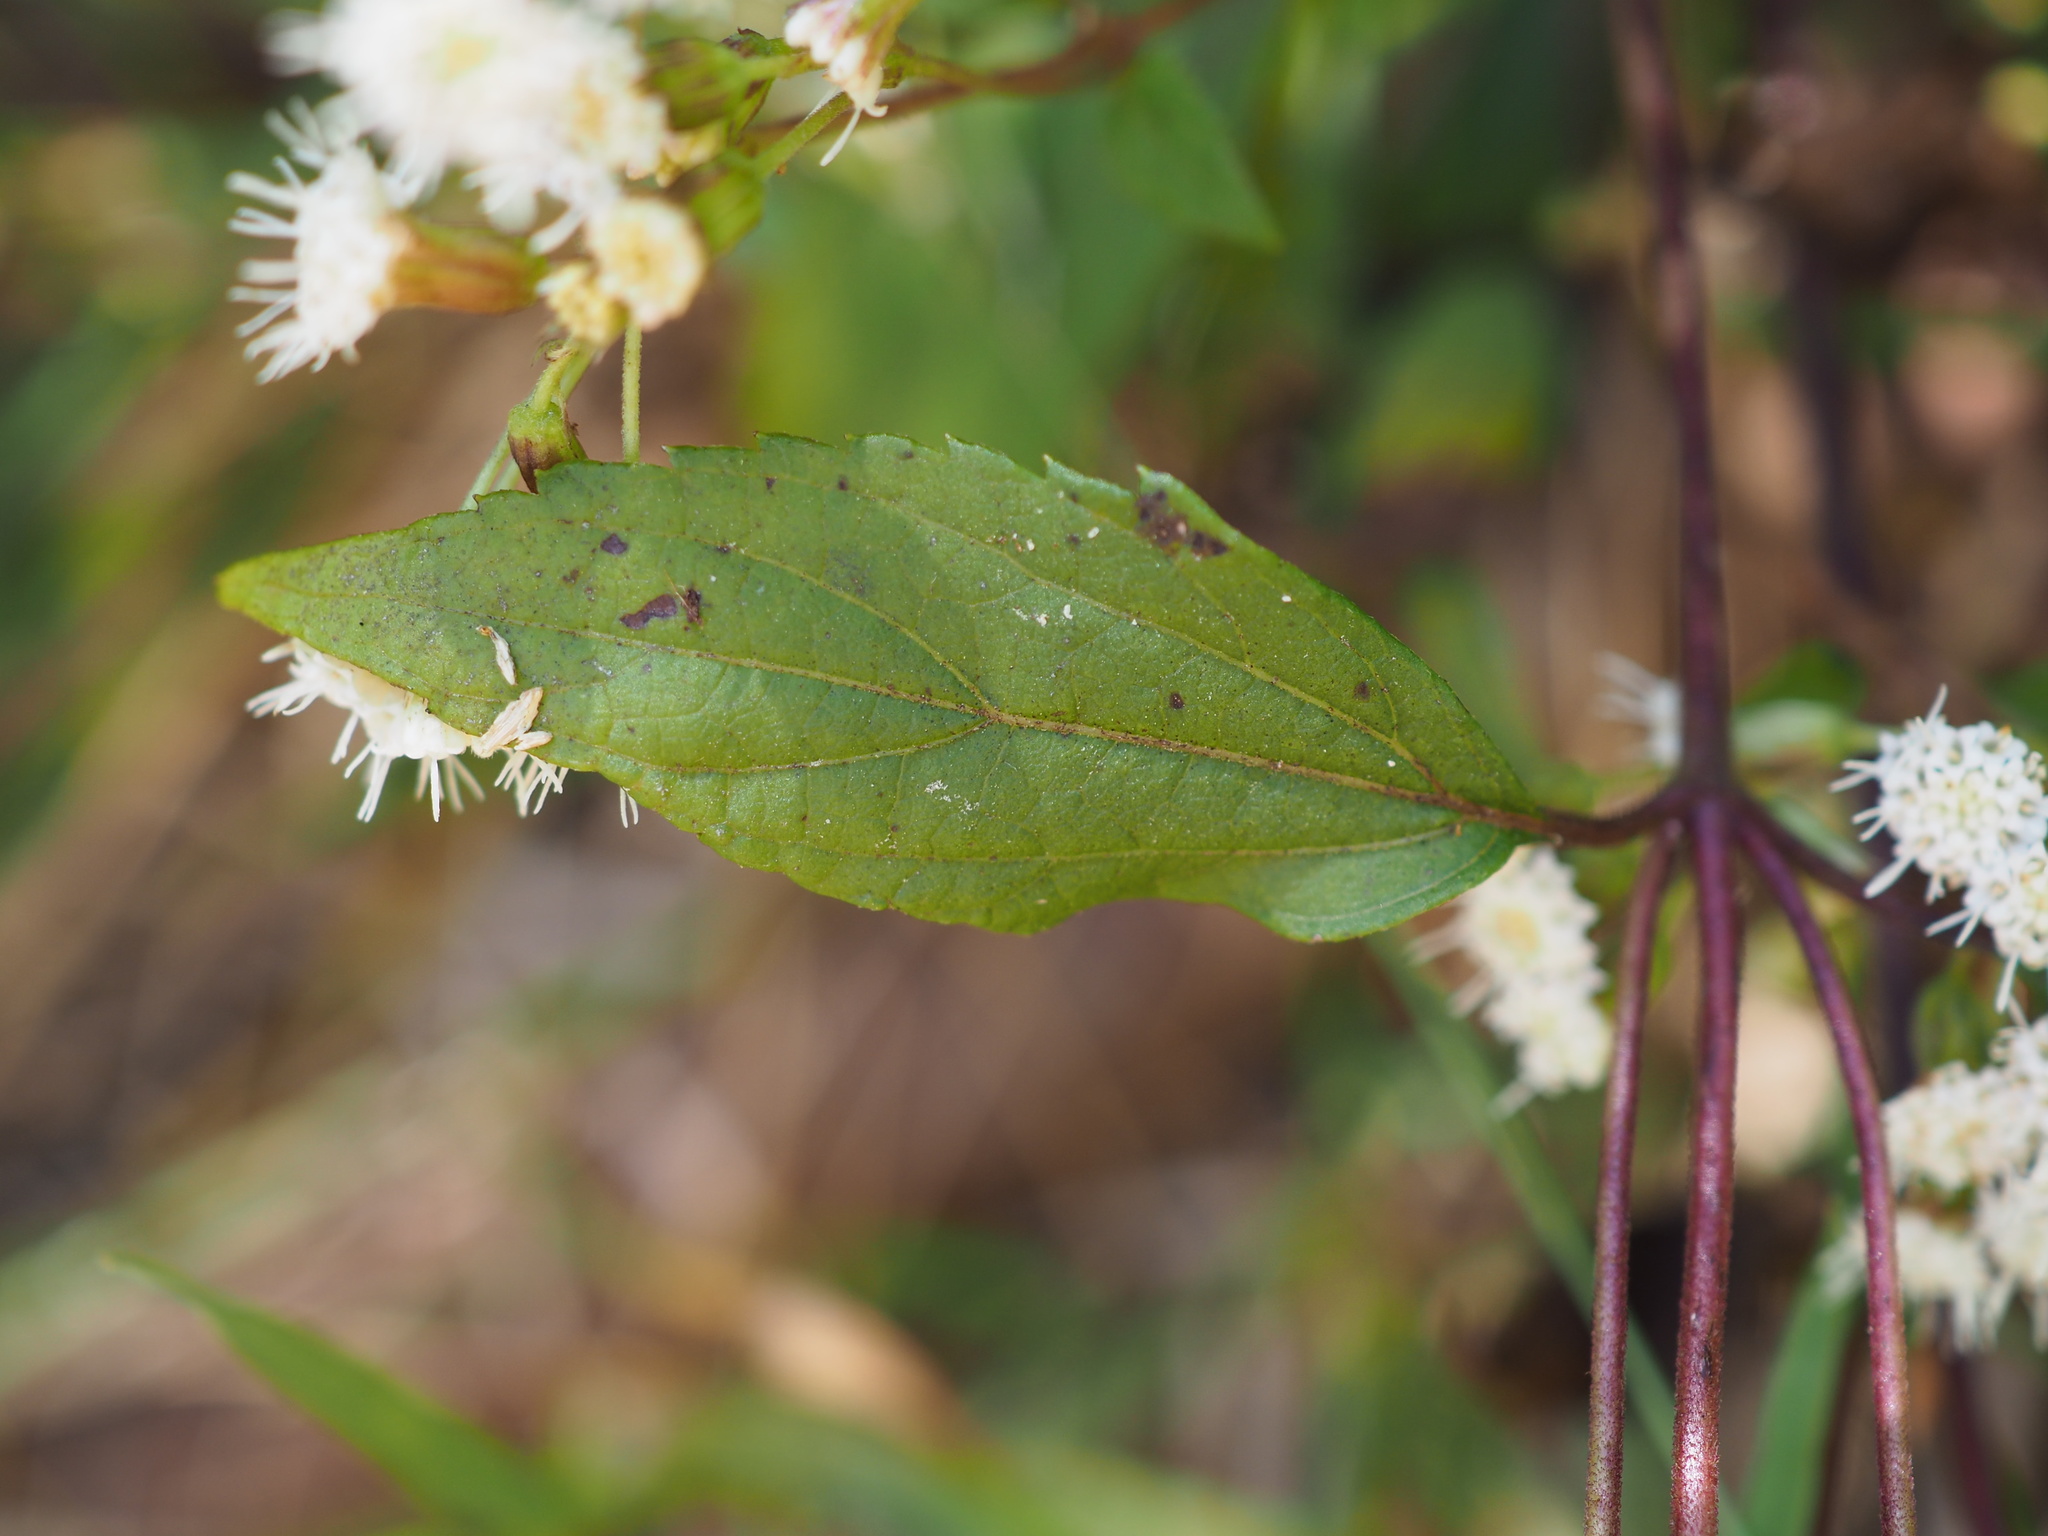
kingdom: Plantae
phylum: Tracheophyta
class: Magnoliopsida
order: Asterales
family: Asteraceae
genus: Ageratina
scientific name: Ageratina riparia
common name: Creeping croftonweed
